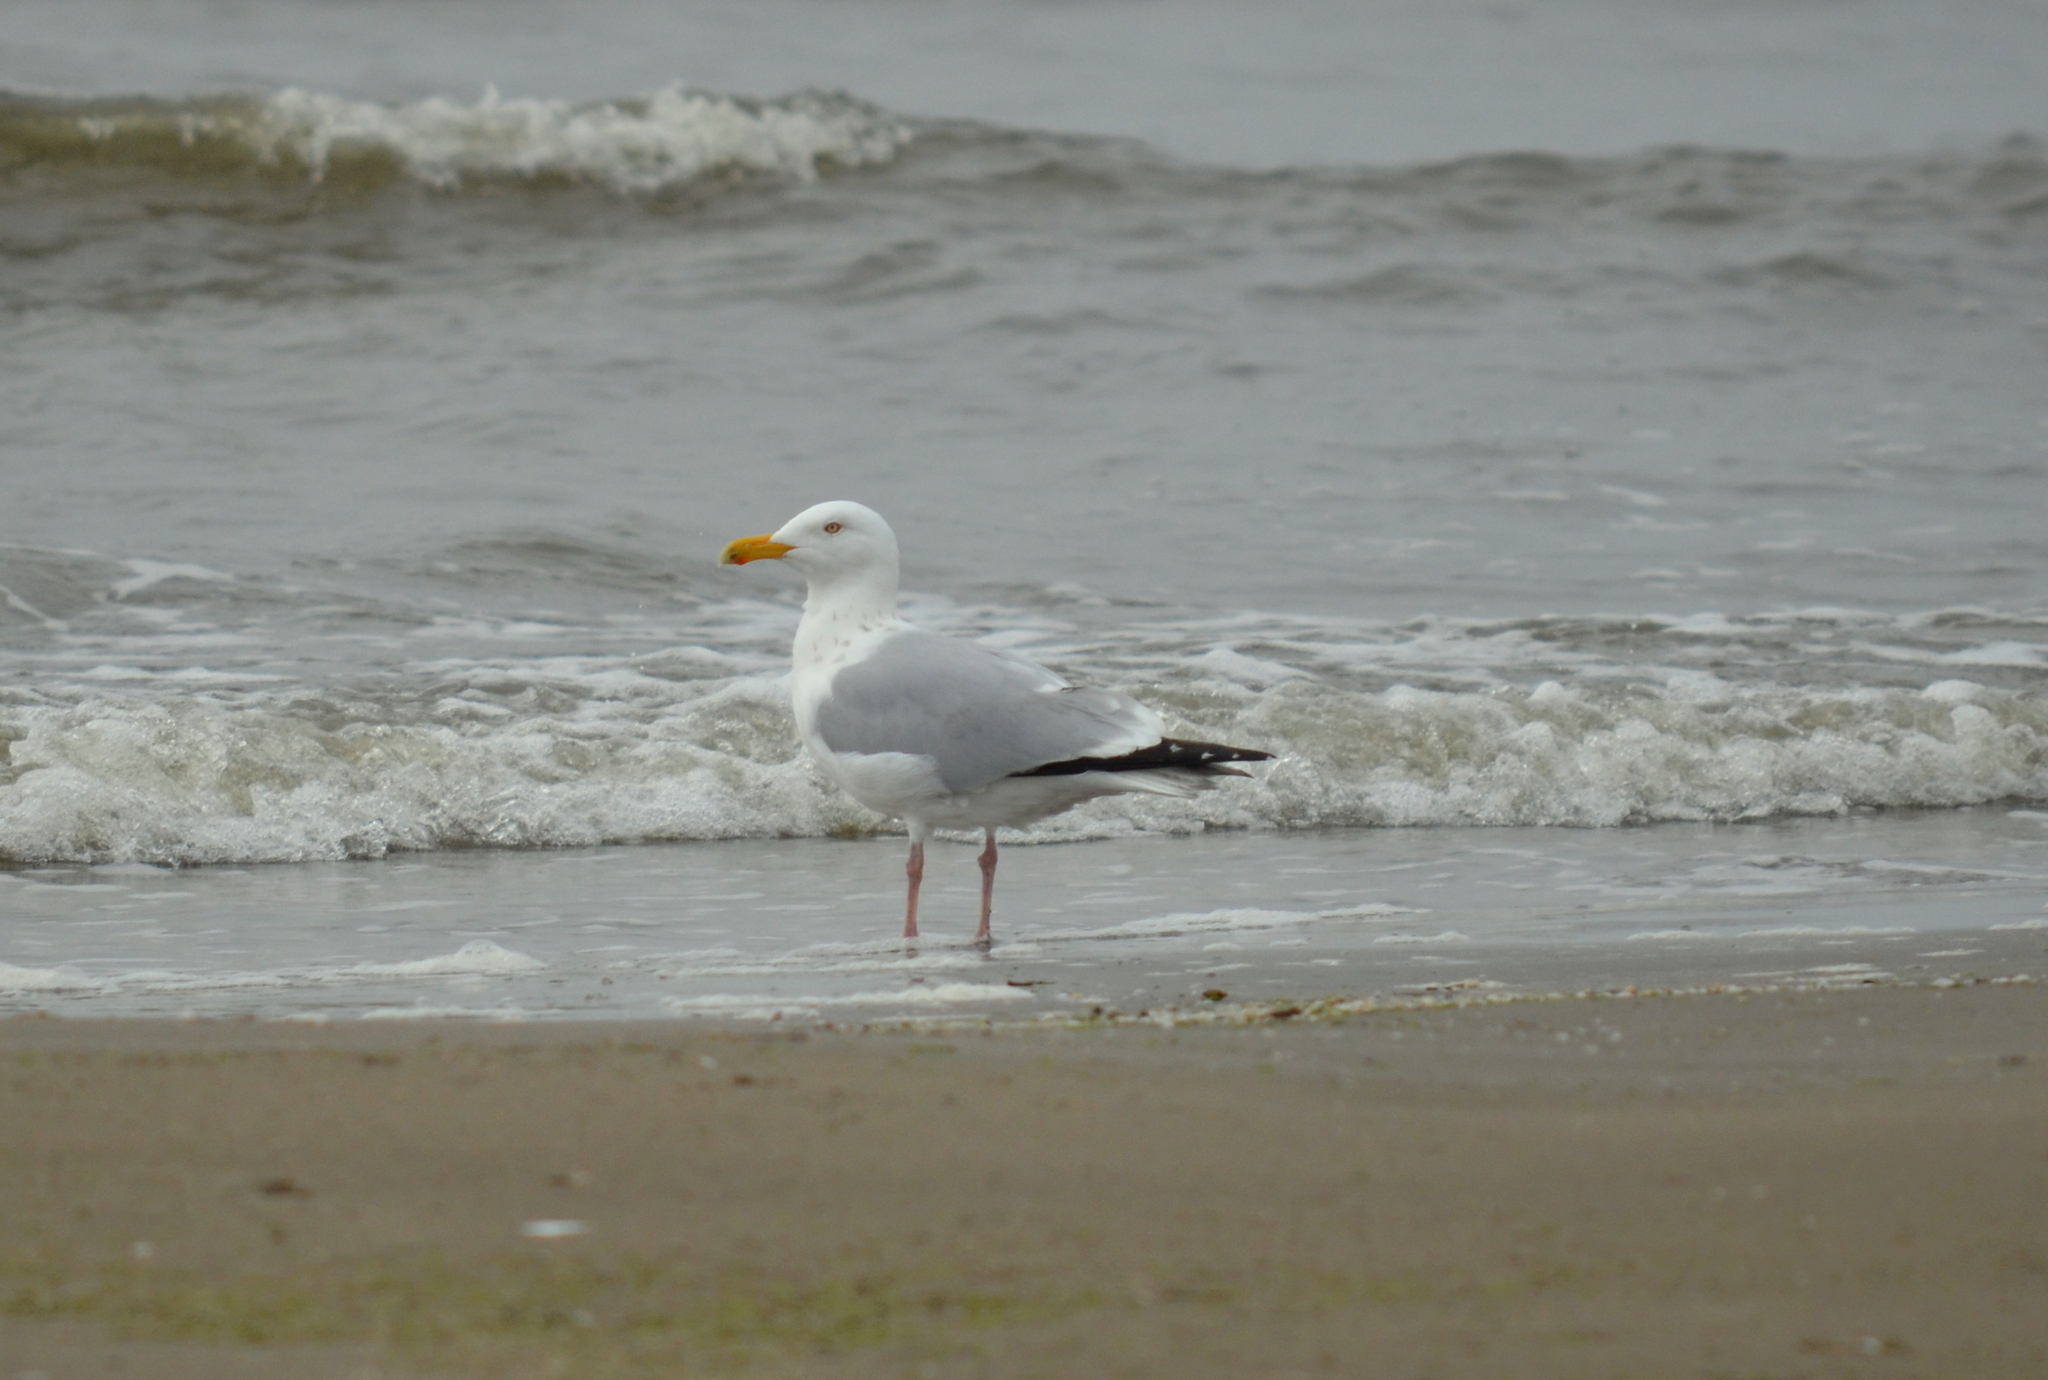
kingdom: Animalia
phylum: Chordata
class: Aves
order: Charadriiformes
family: Laridae
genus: Larus
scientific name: Larus argentatus
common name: Herring gull
